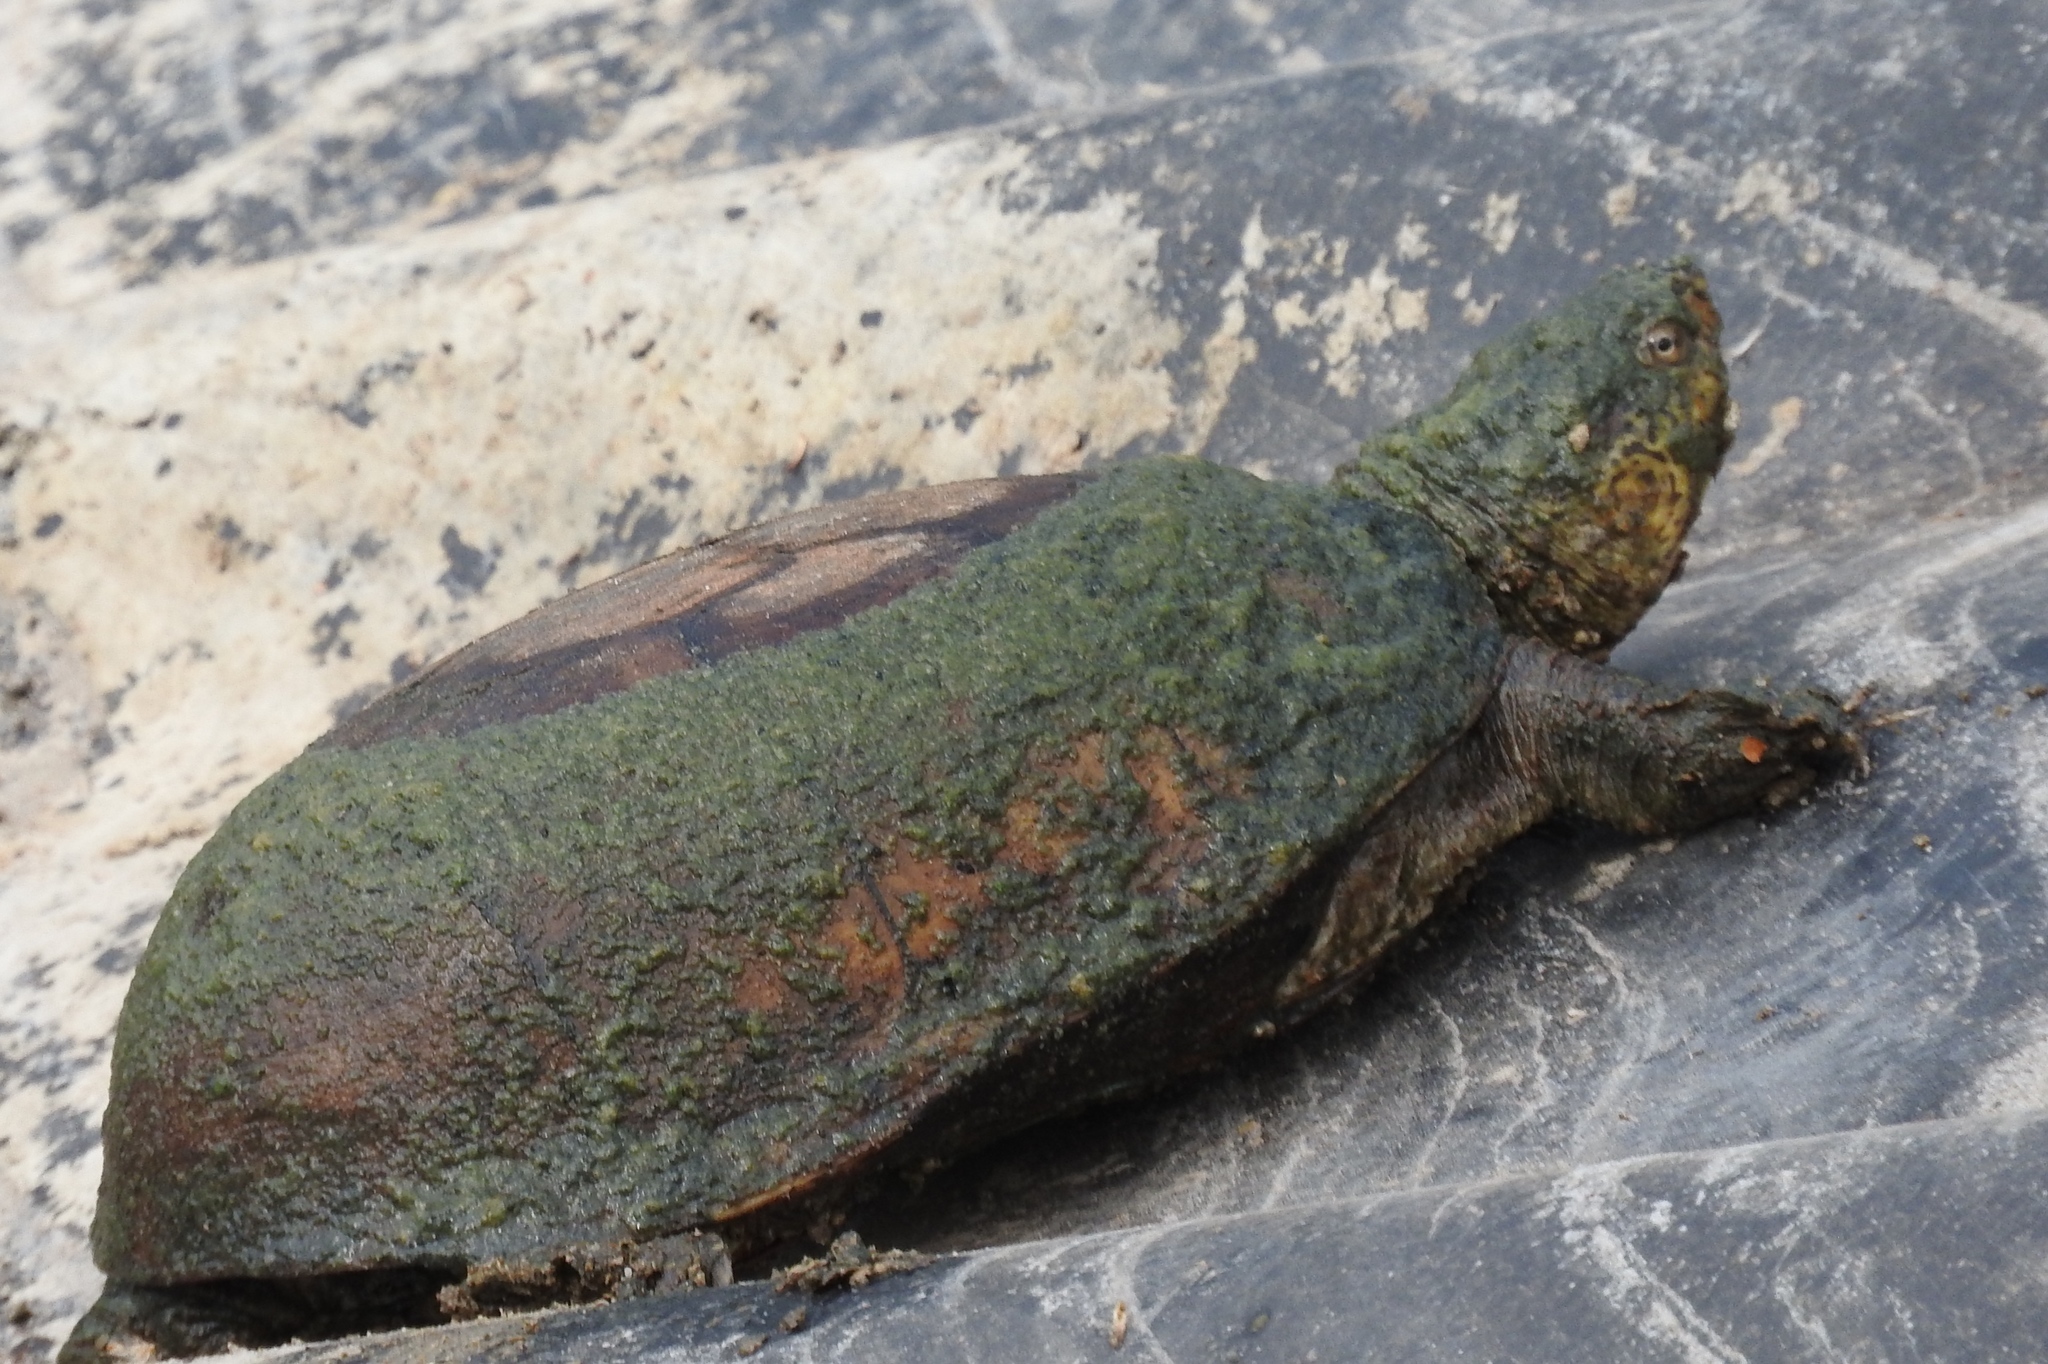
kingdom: Animalia
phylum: Chordata
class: Testudines
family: Kinosternidae
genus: Kinosternon
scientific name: Kinosternon integrum
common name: Mexican mud turtle
